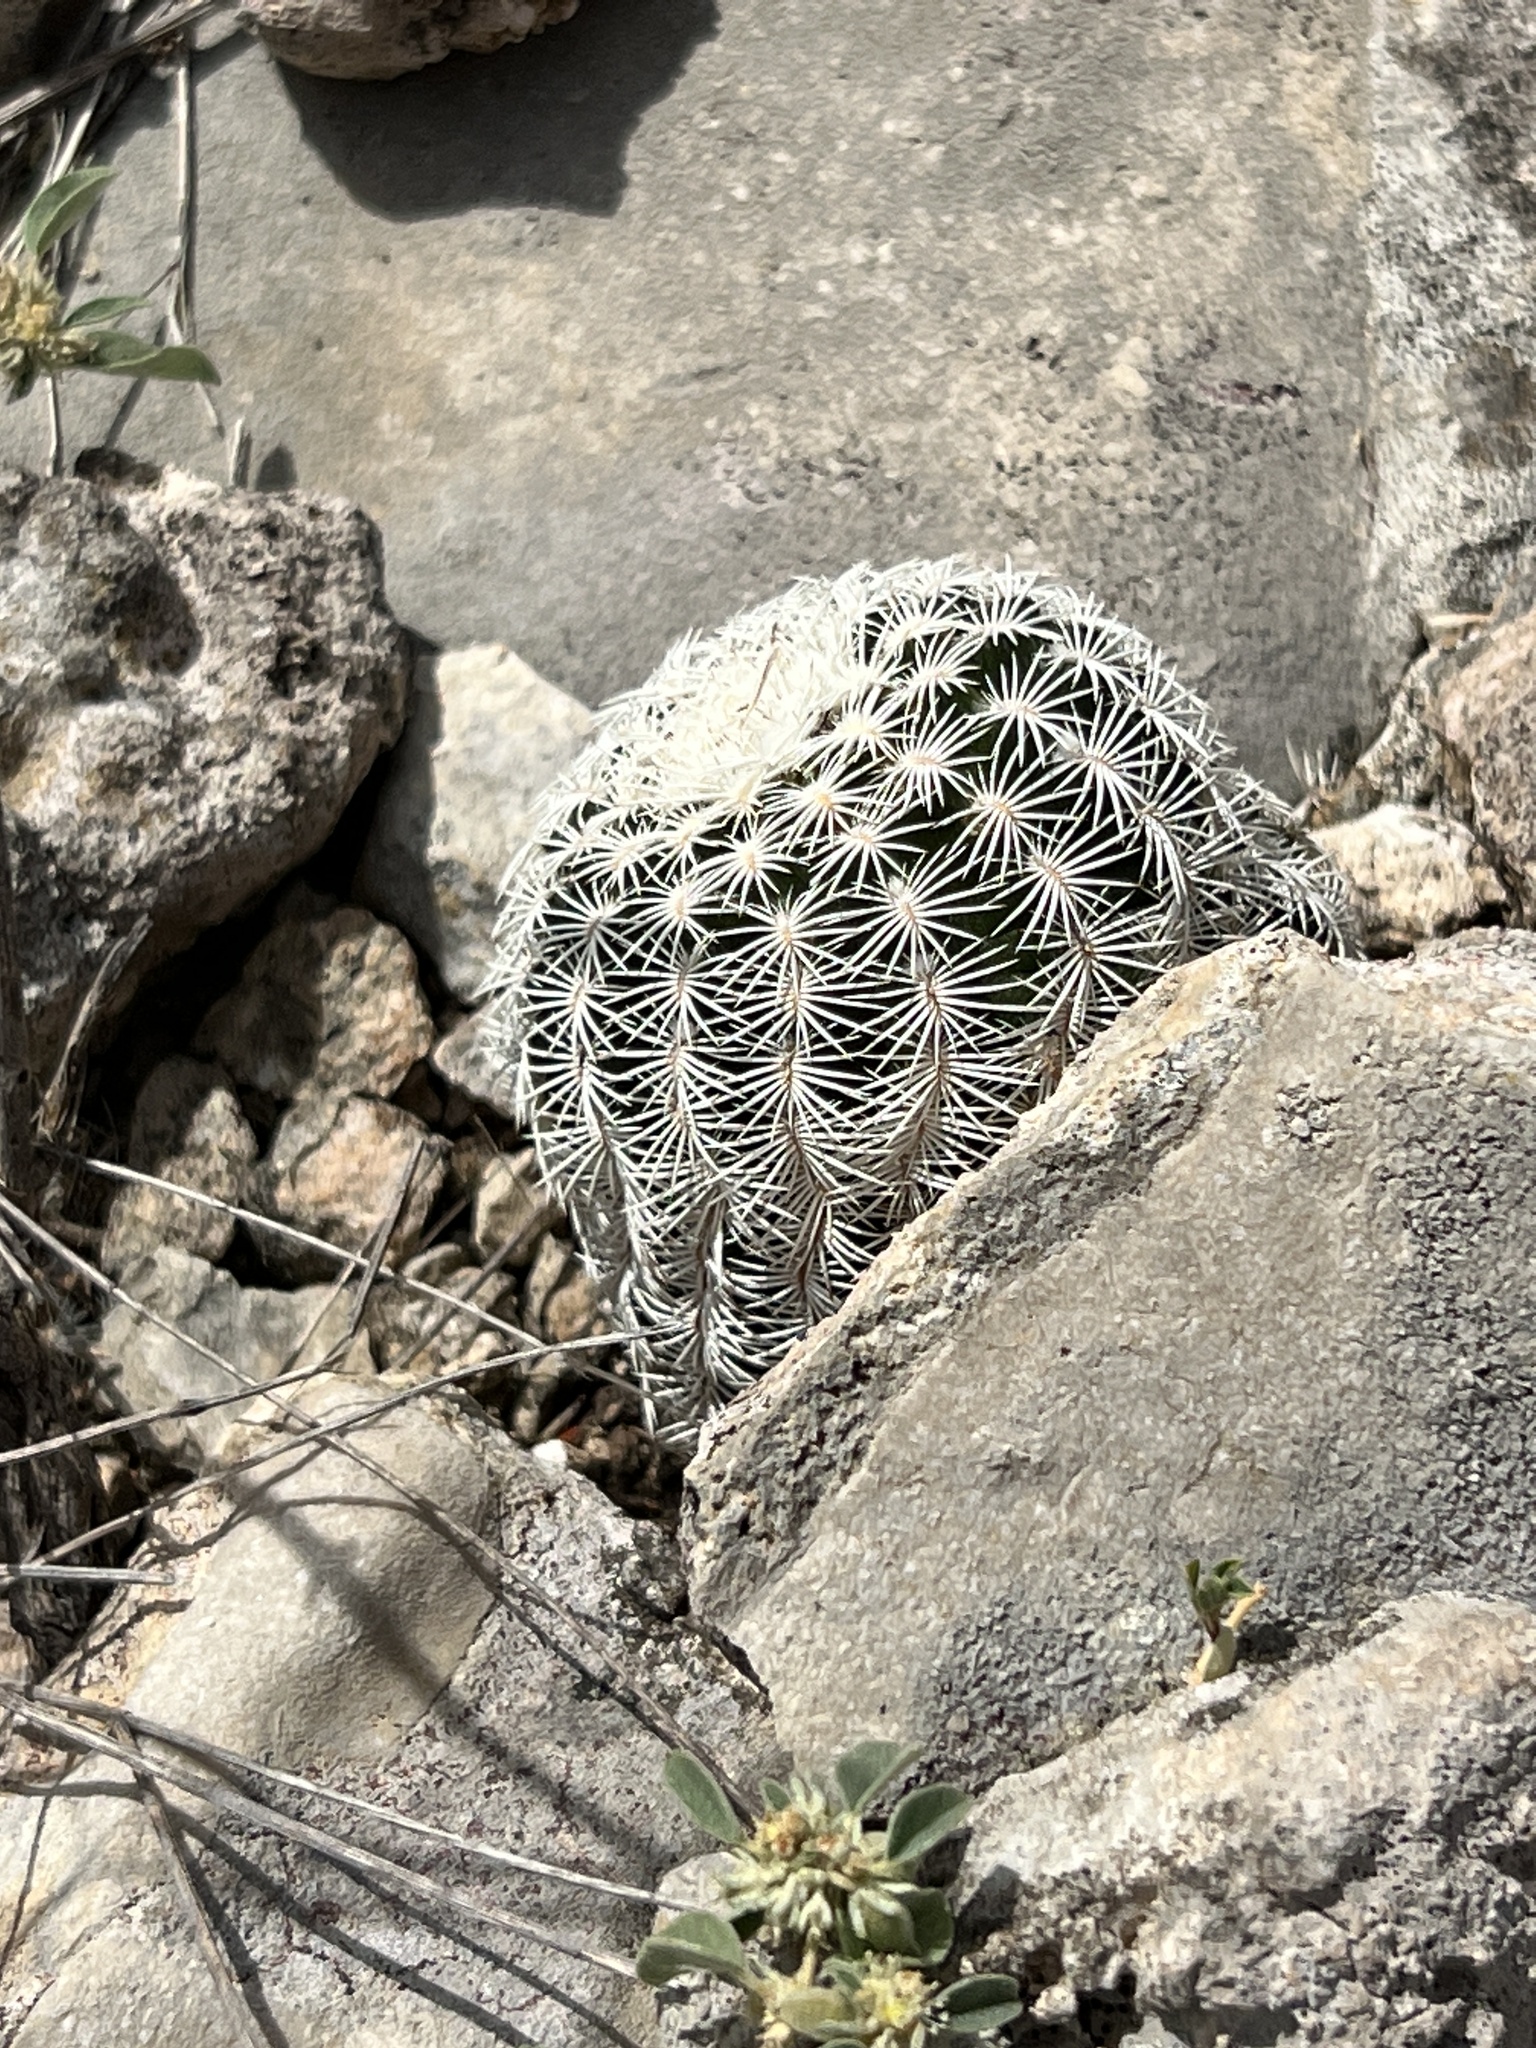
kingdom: Plantae
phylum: Tracheophyta
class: Magnoliopsida
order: Caryophyllales
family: Cactaceae
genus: Echinocereus
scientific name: Echinocereus reichenbachii
